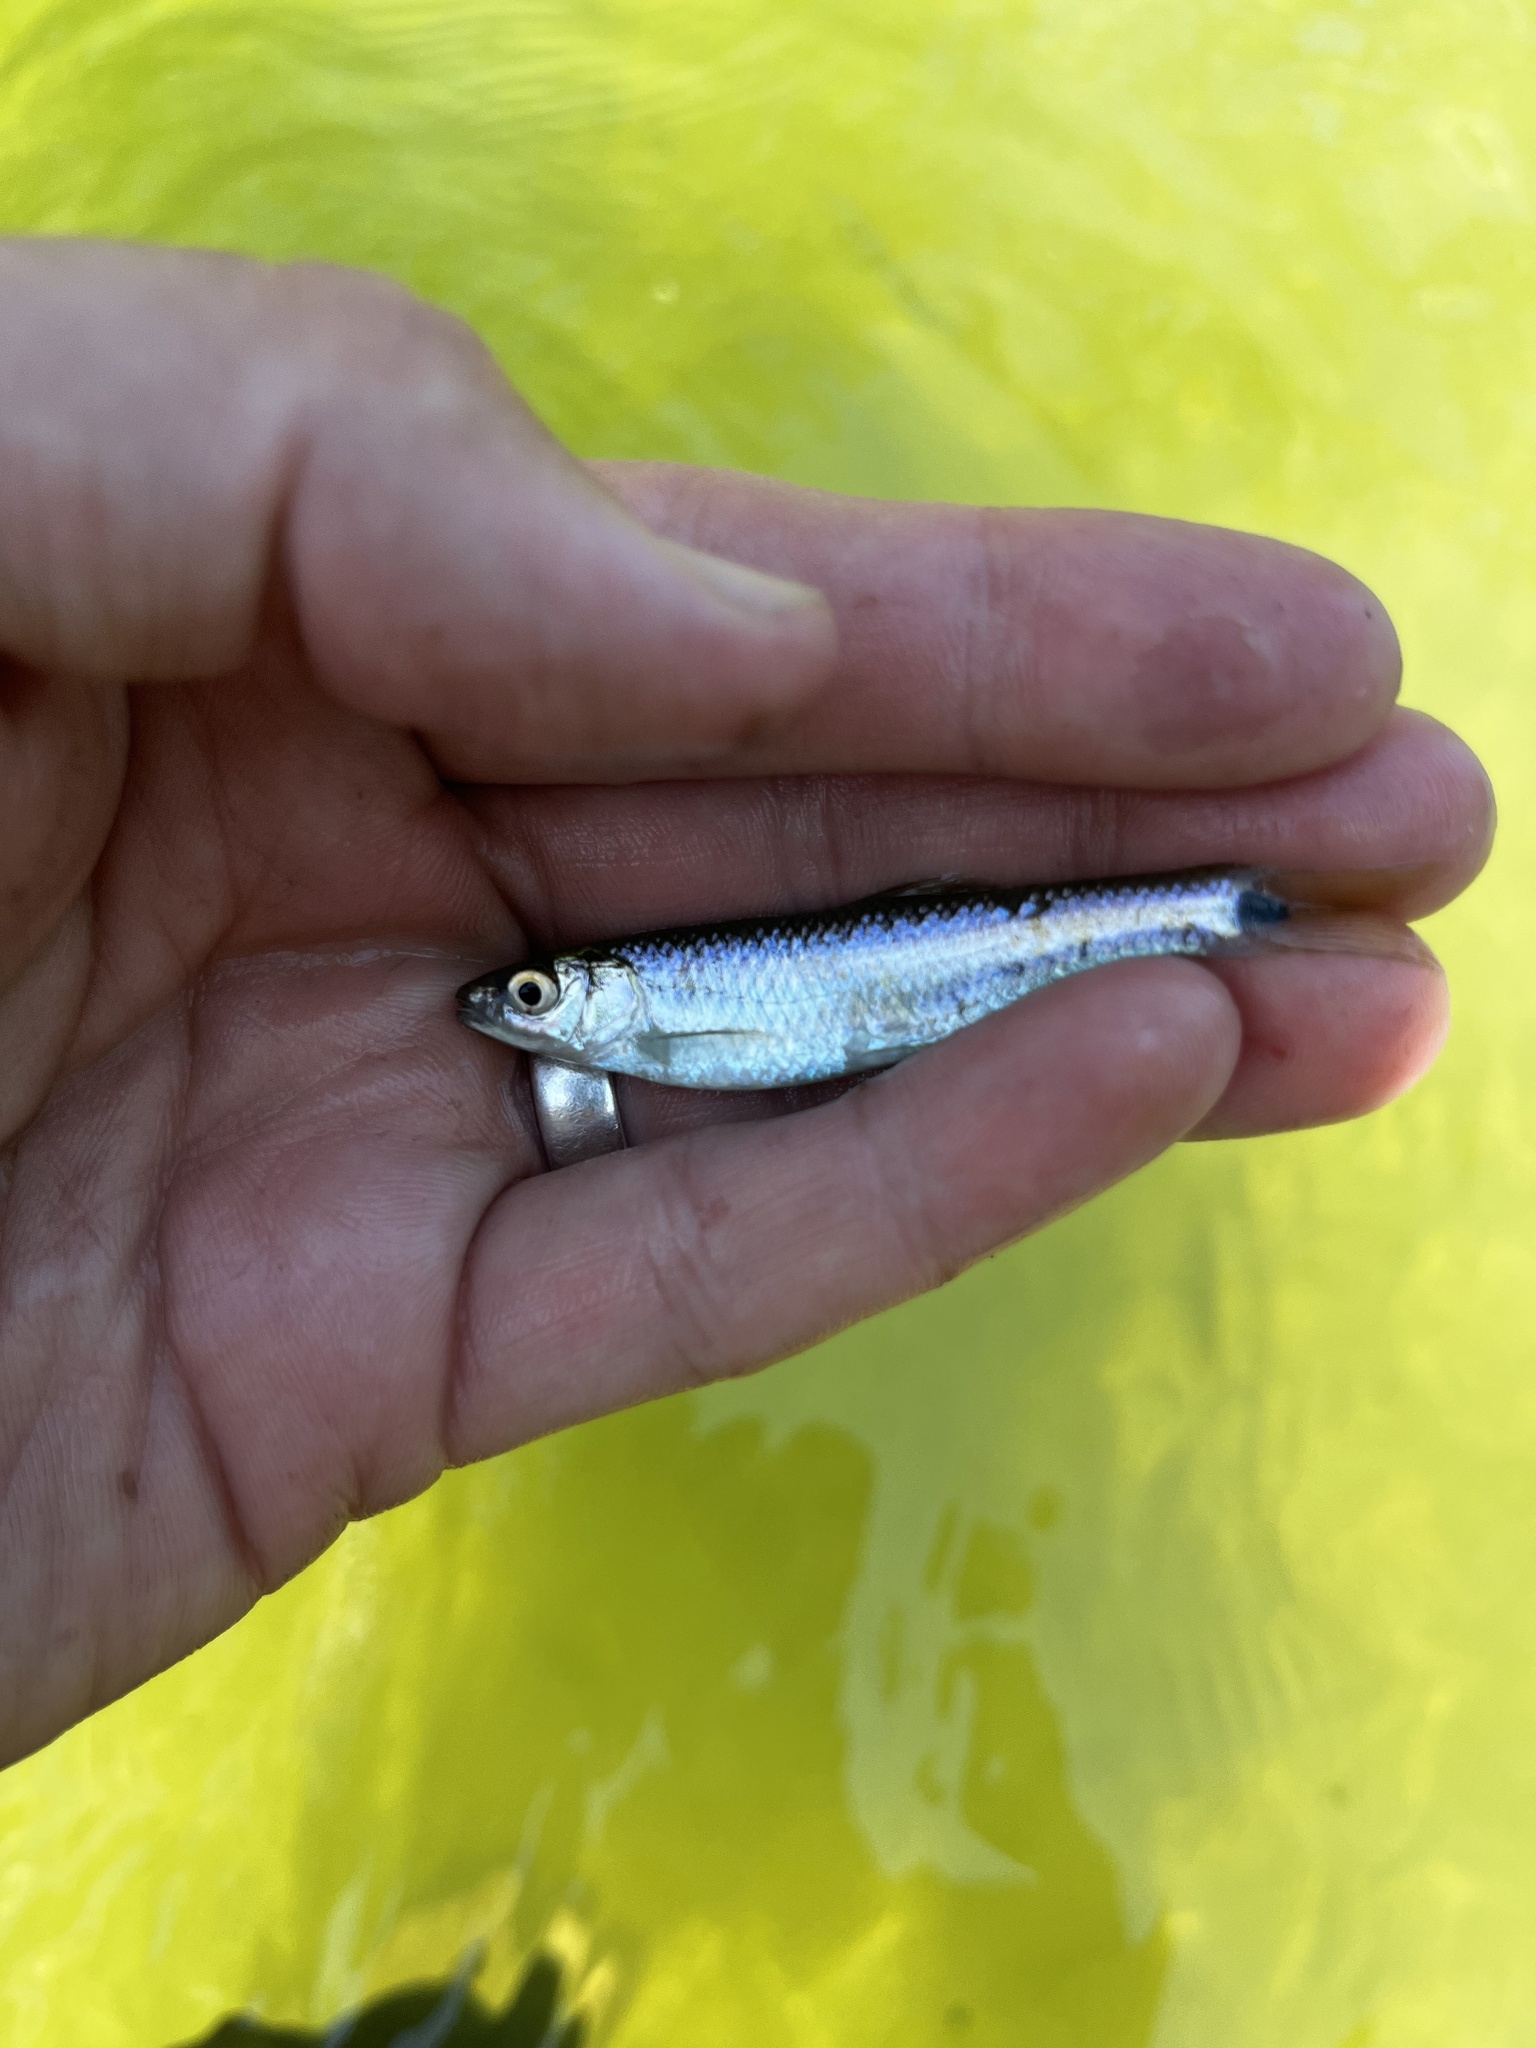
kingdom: Animalia
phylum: Chordata
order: Cypriniformes
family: Cyprinidae
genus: Cyprinella
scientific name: Cyprinella venusta
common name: Blacktail shiner
